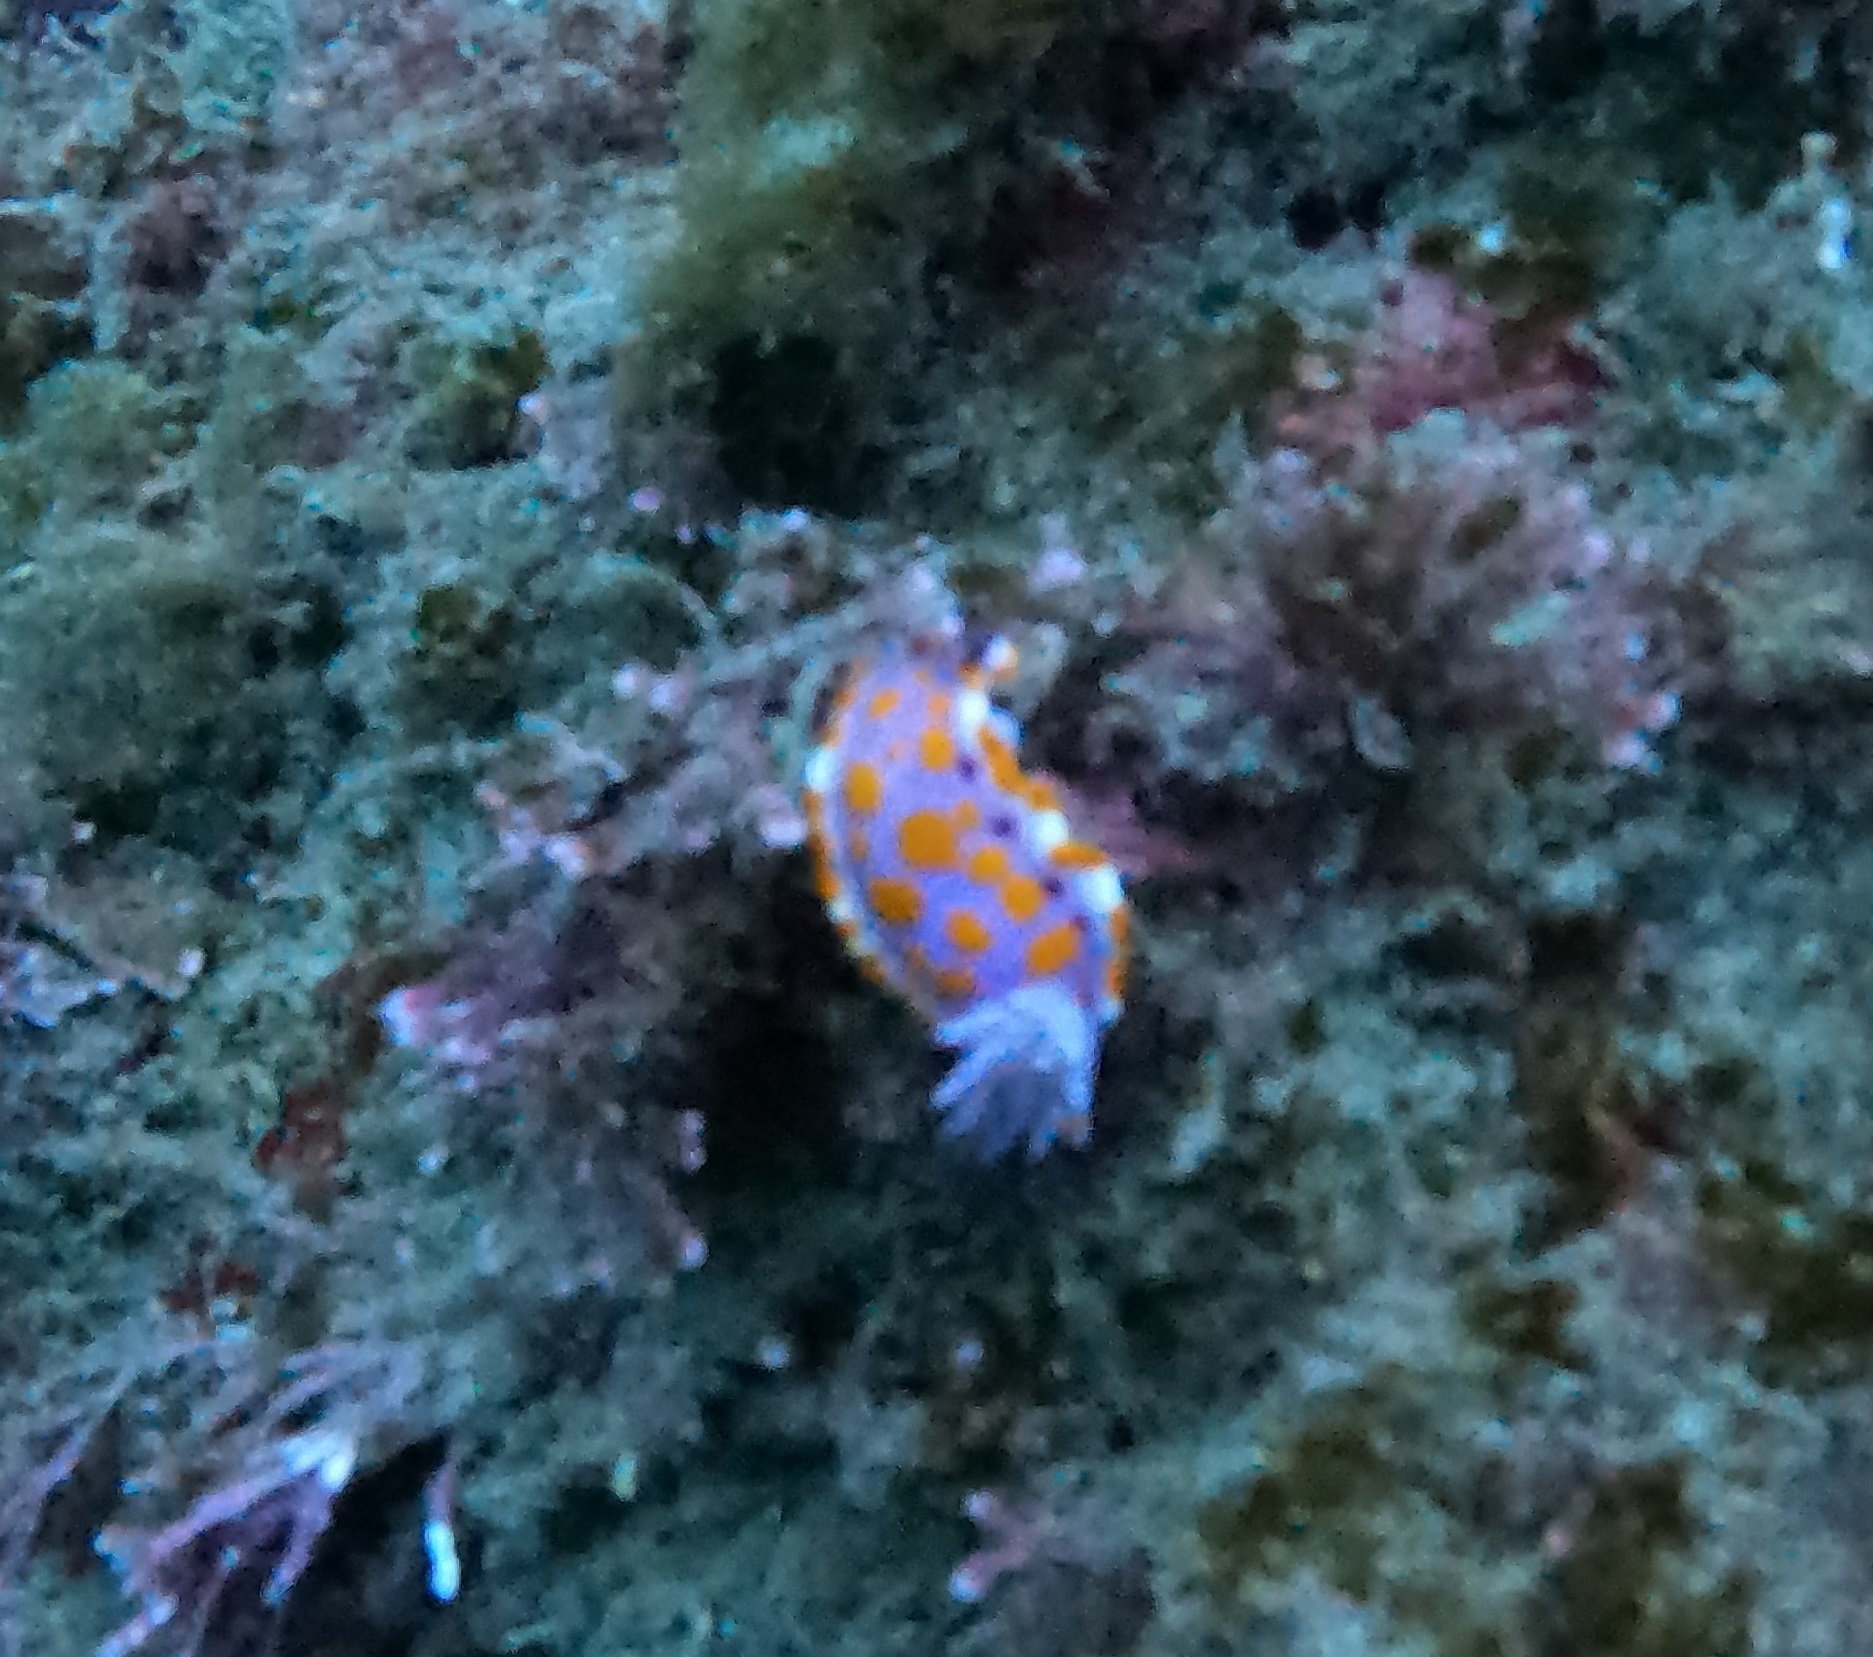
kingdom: Animalia
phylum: Mollusca
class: Gastropoda
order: Nudibranchia
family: Chromodorididae
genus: Ceratosoma
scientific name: Ceratosoma amoenum
